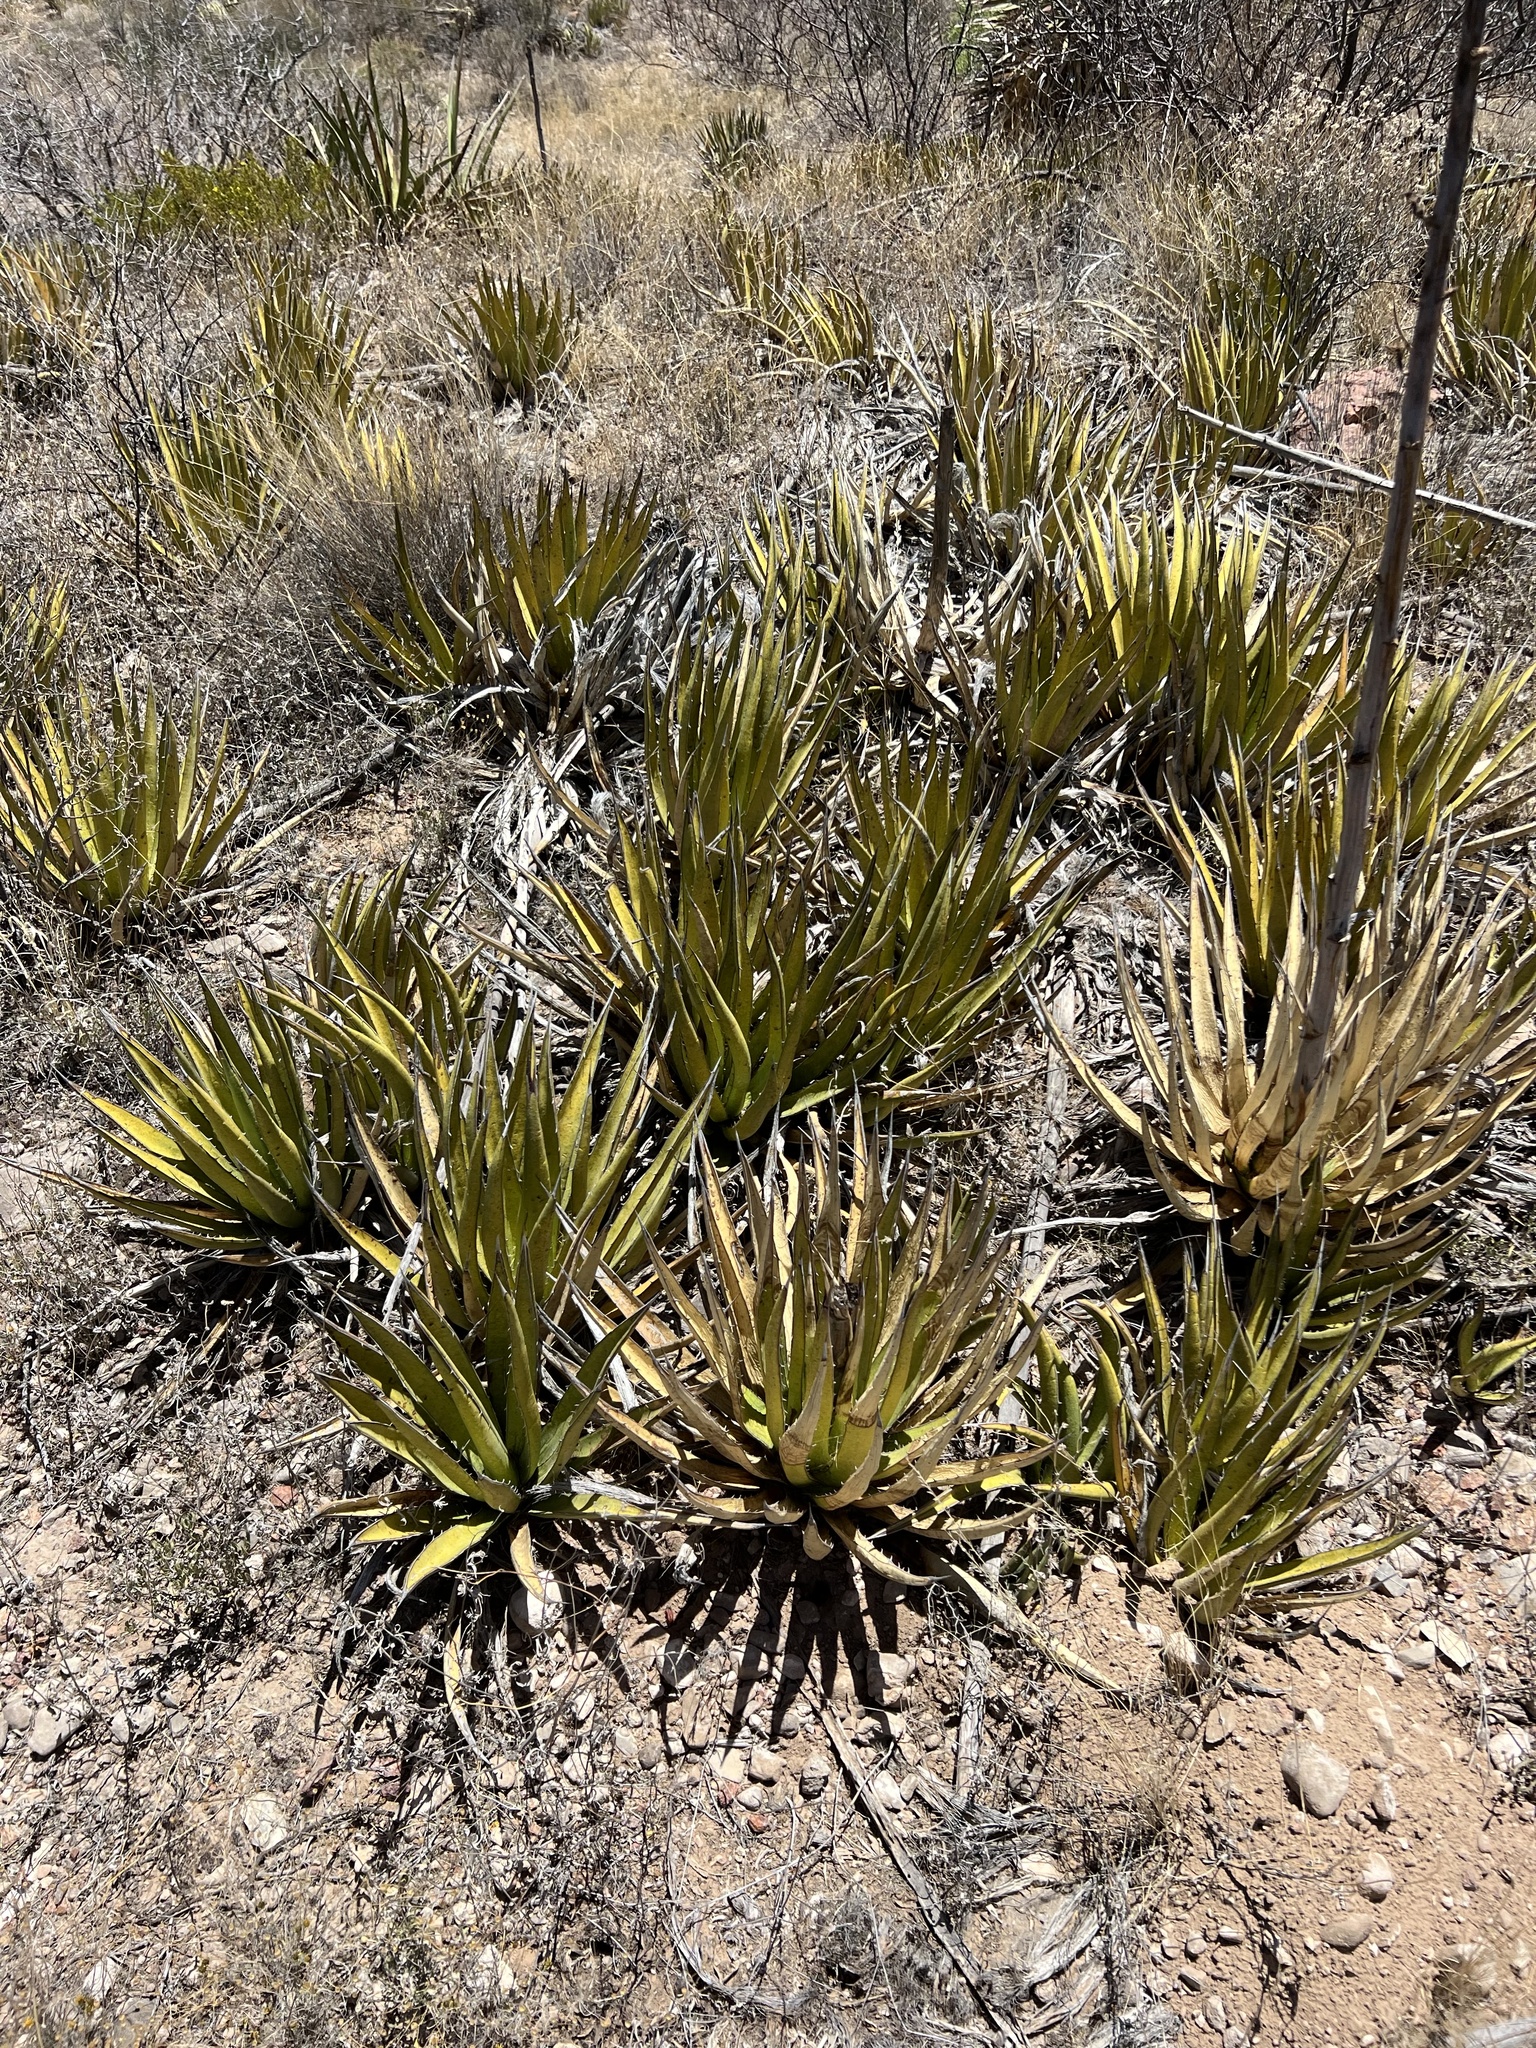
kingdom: Plantae
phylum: Tracheophyta
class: Liliopsida
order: Asparagales
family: Asparagaceae
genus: Agave
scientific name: Agave lechuguilla
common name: Lecheguilla agave
